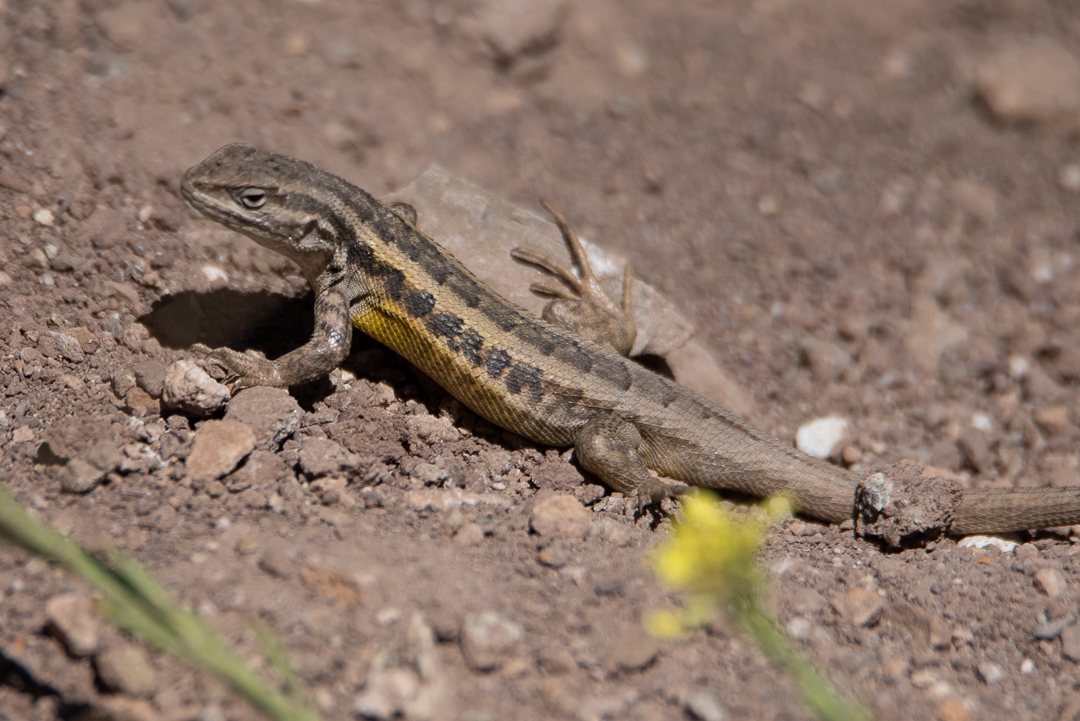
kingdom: Animalia
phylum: Chordata
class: Squamata
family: Liolaemidae
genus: Liolaemus
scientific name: Liolaemus moradoensis
